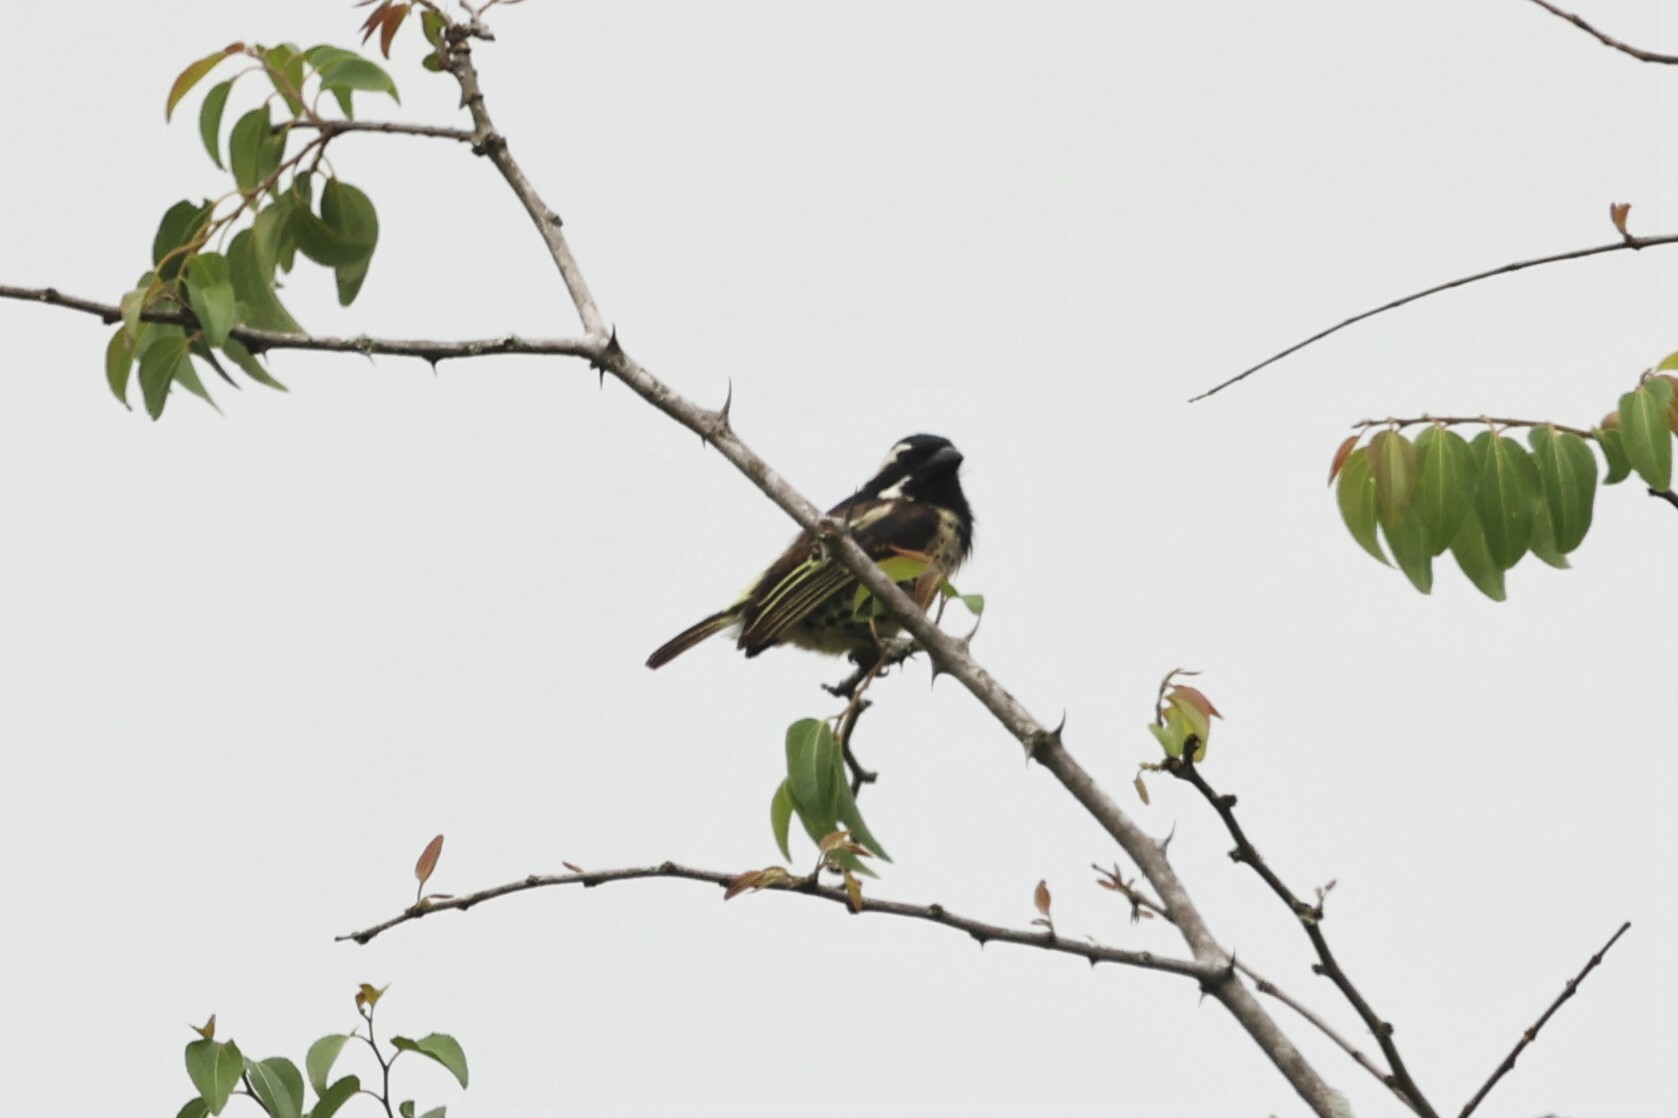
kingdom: Animalia
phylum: Chordata
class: Aves
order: Piciformes
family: Lybiidae
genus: Tricholaema
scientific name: Tricholaema lacrymosa
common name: Spot-flanked barbet
